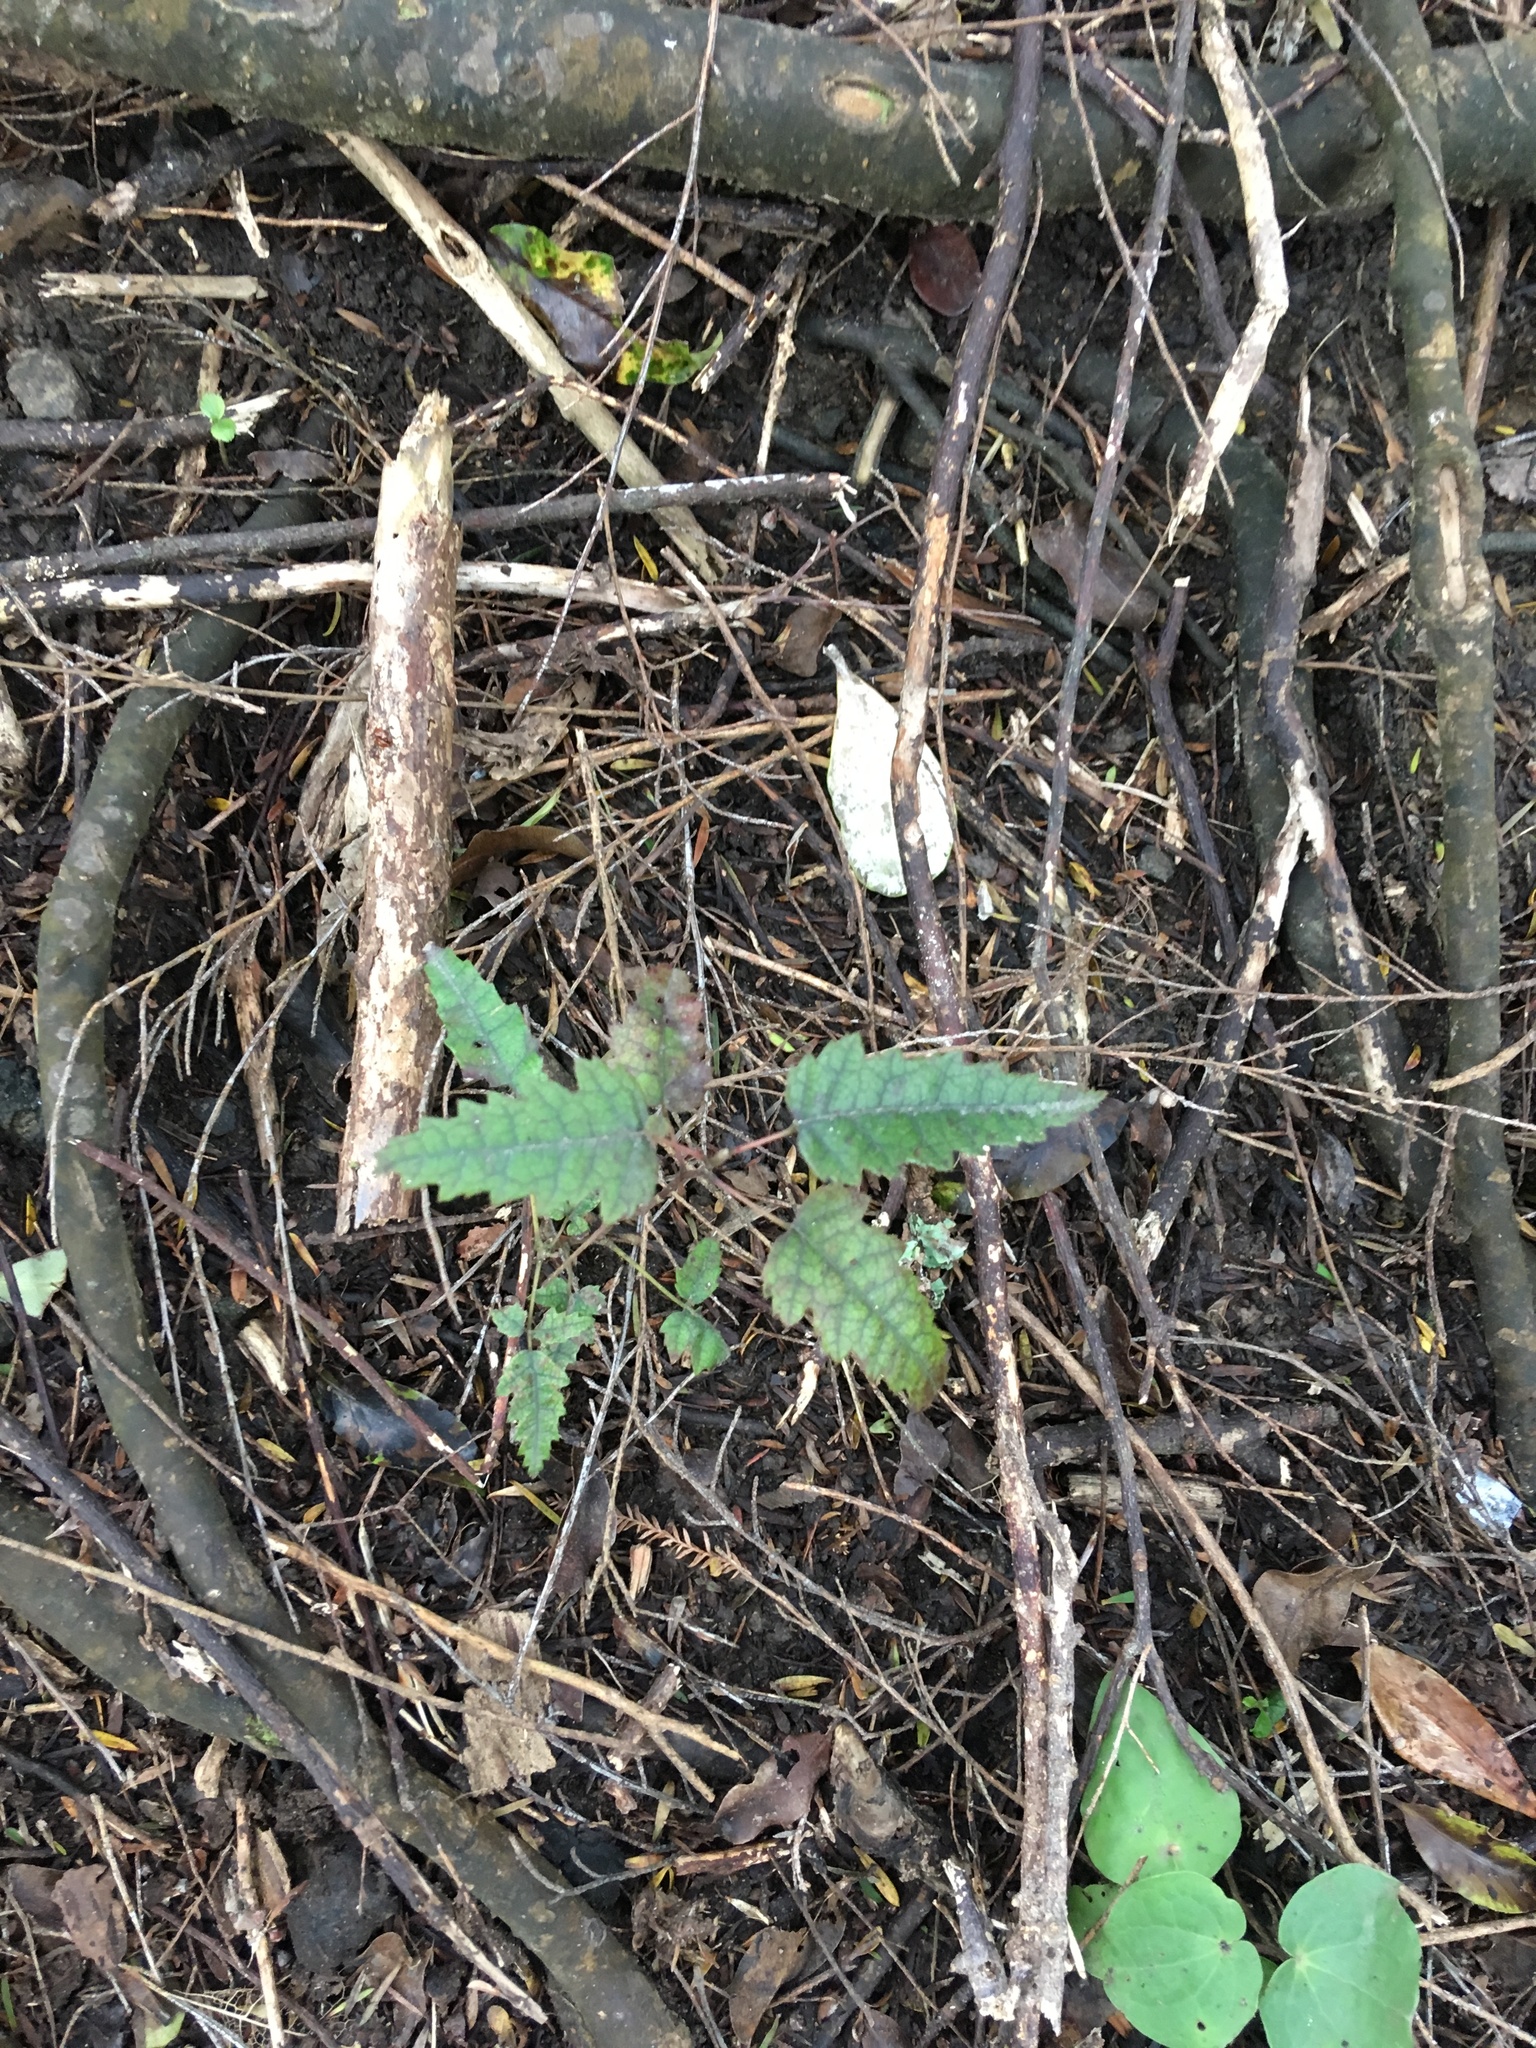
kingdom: Plantae
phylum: Tracheophyta
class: Magnoliopsida
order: Rosales
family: Rosaceae
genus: Rubus
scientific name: Rubus cissoides
